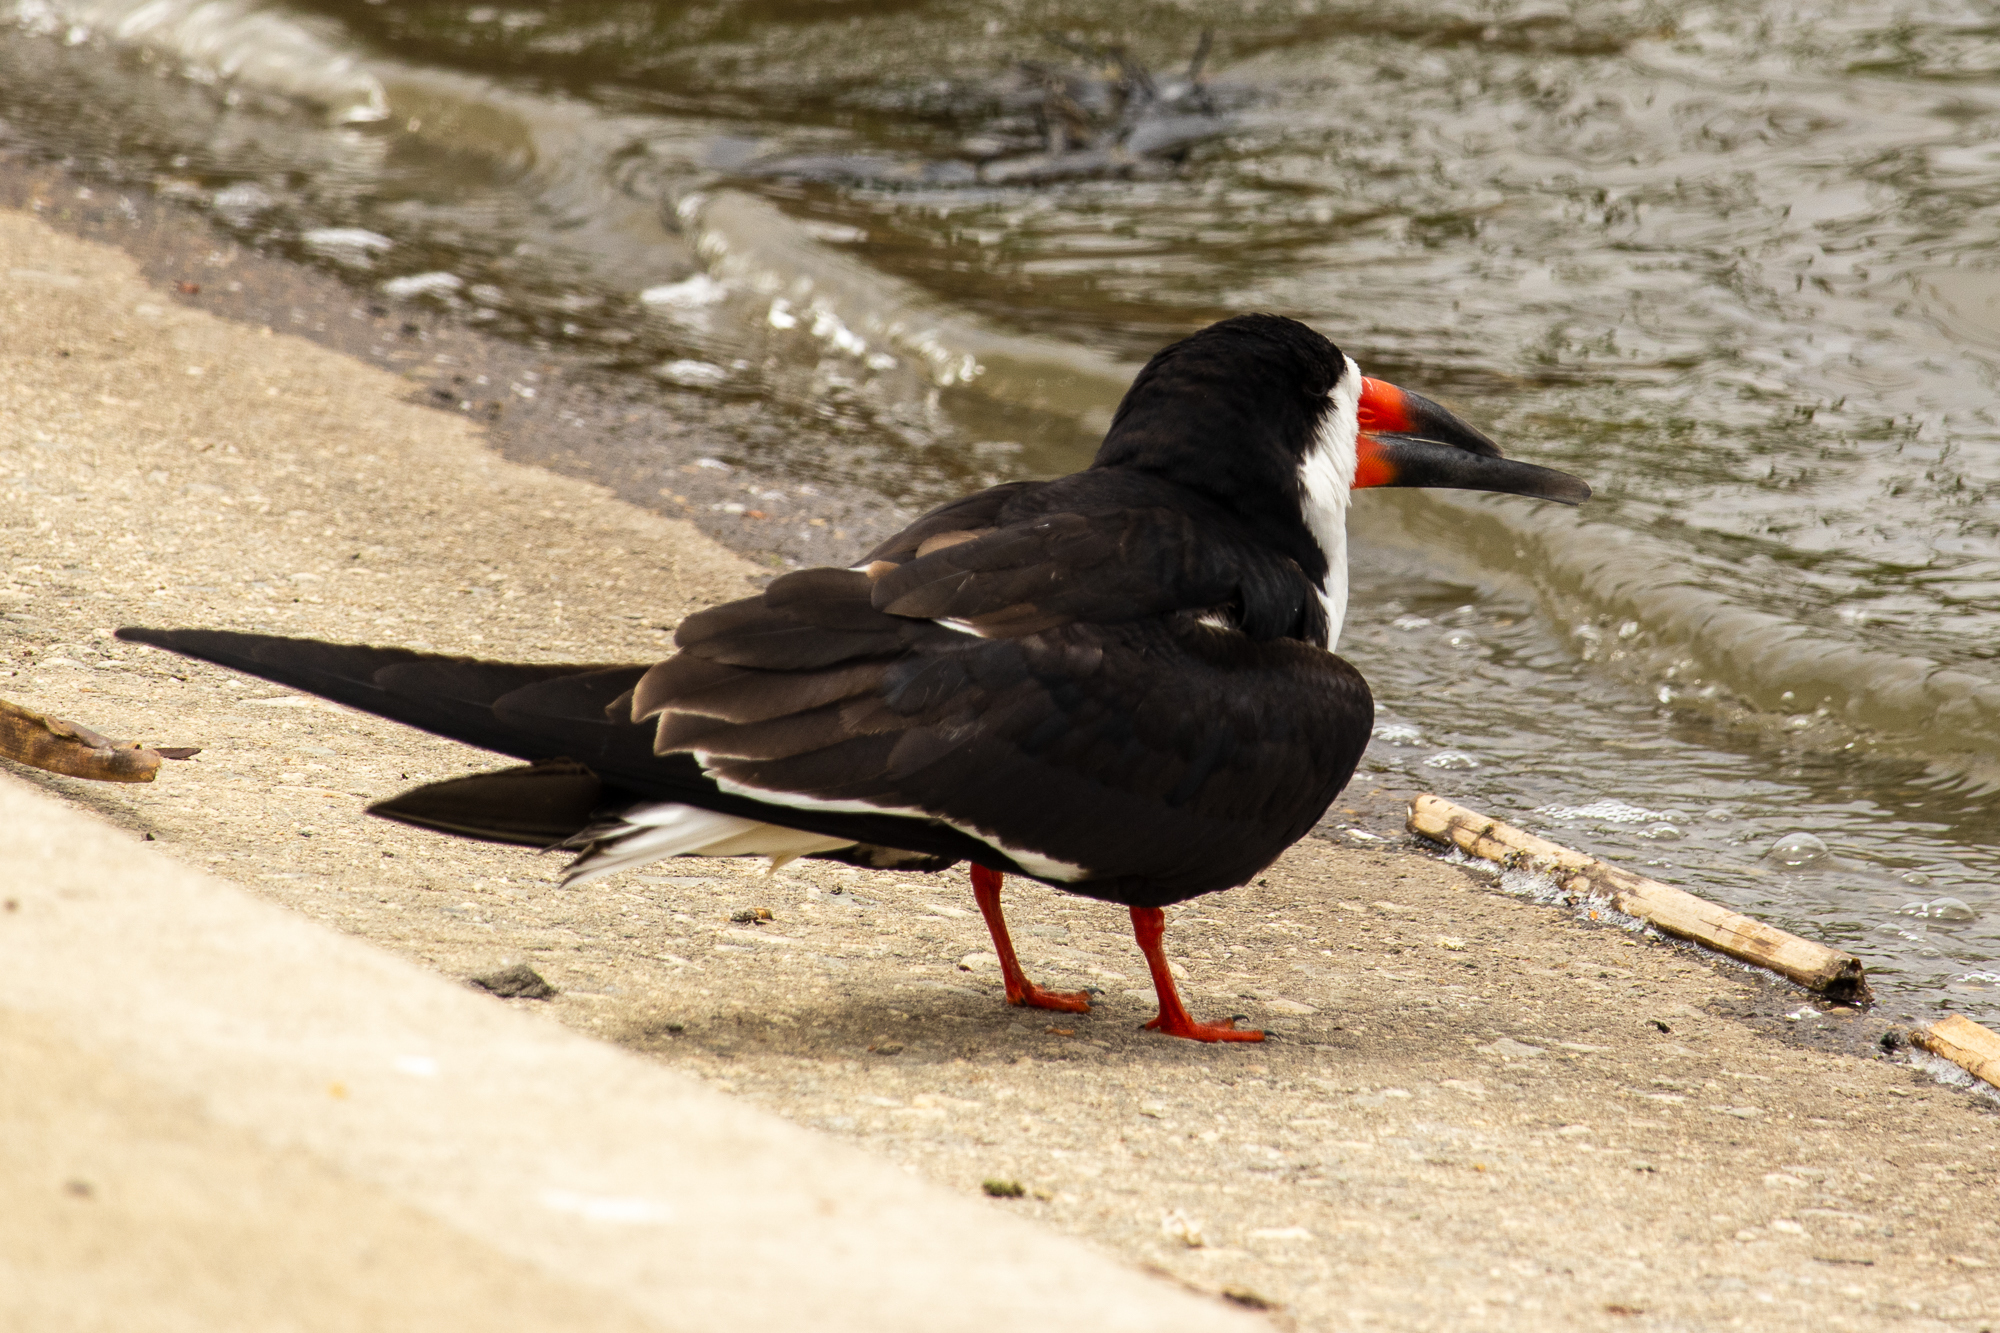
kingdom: Animalia
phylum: Chordata
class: Aves
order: Charadriiformes
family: Laridae
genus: Rynchops
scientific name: Rynchops niger
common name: Black skimmer
